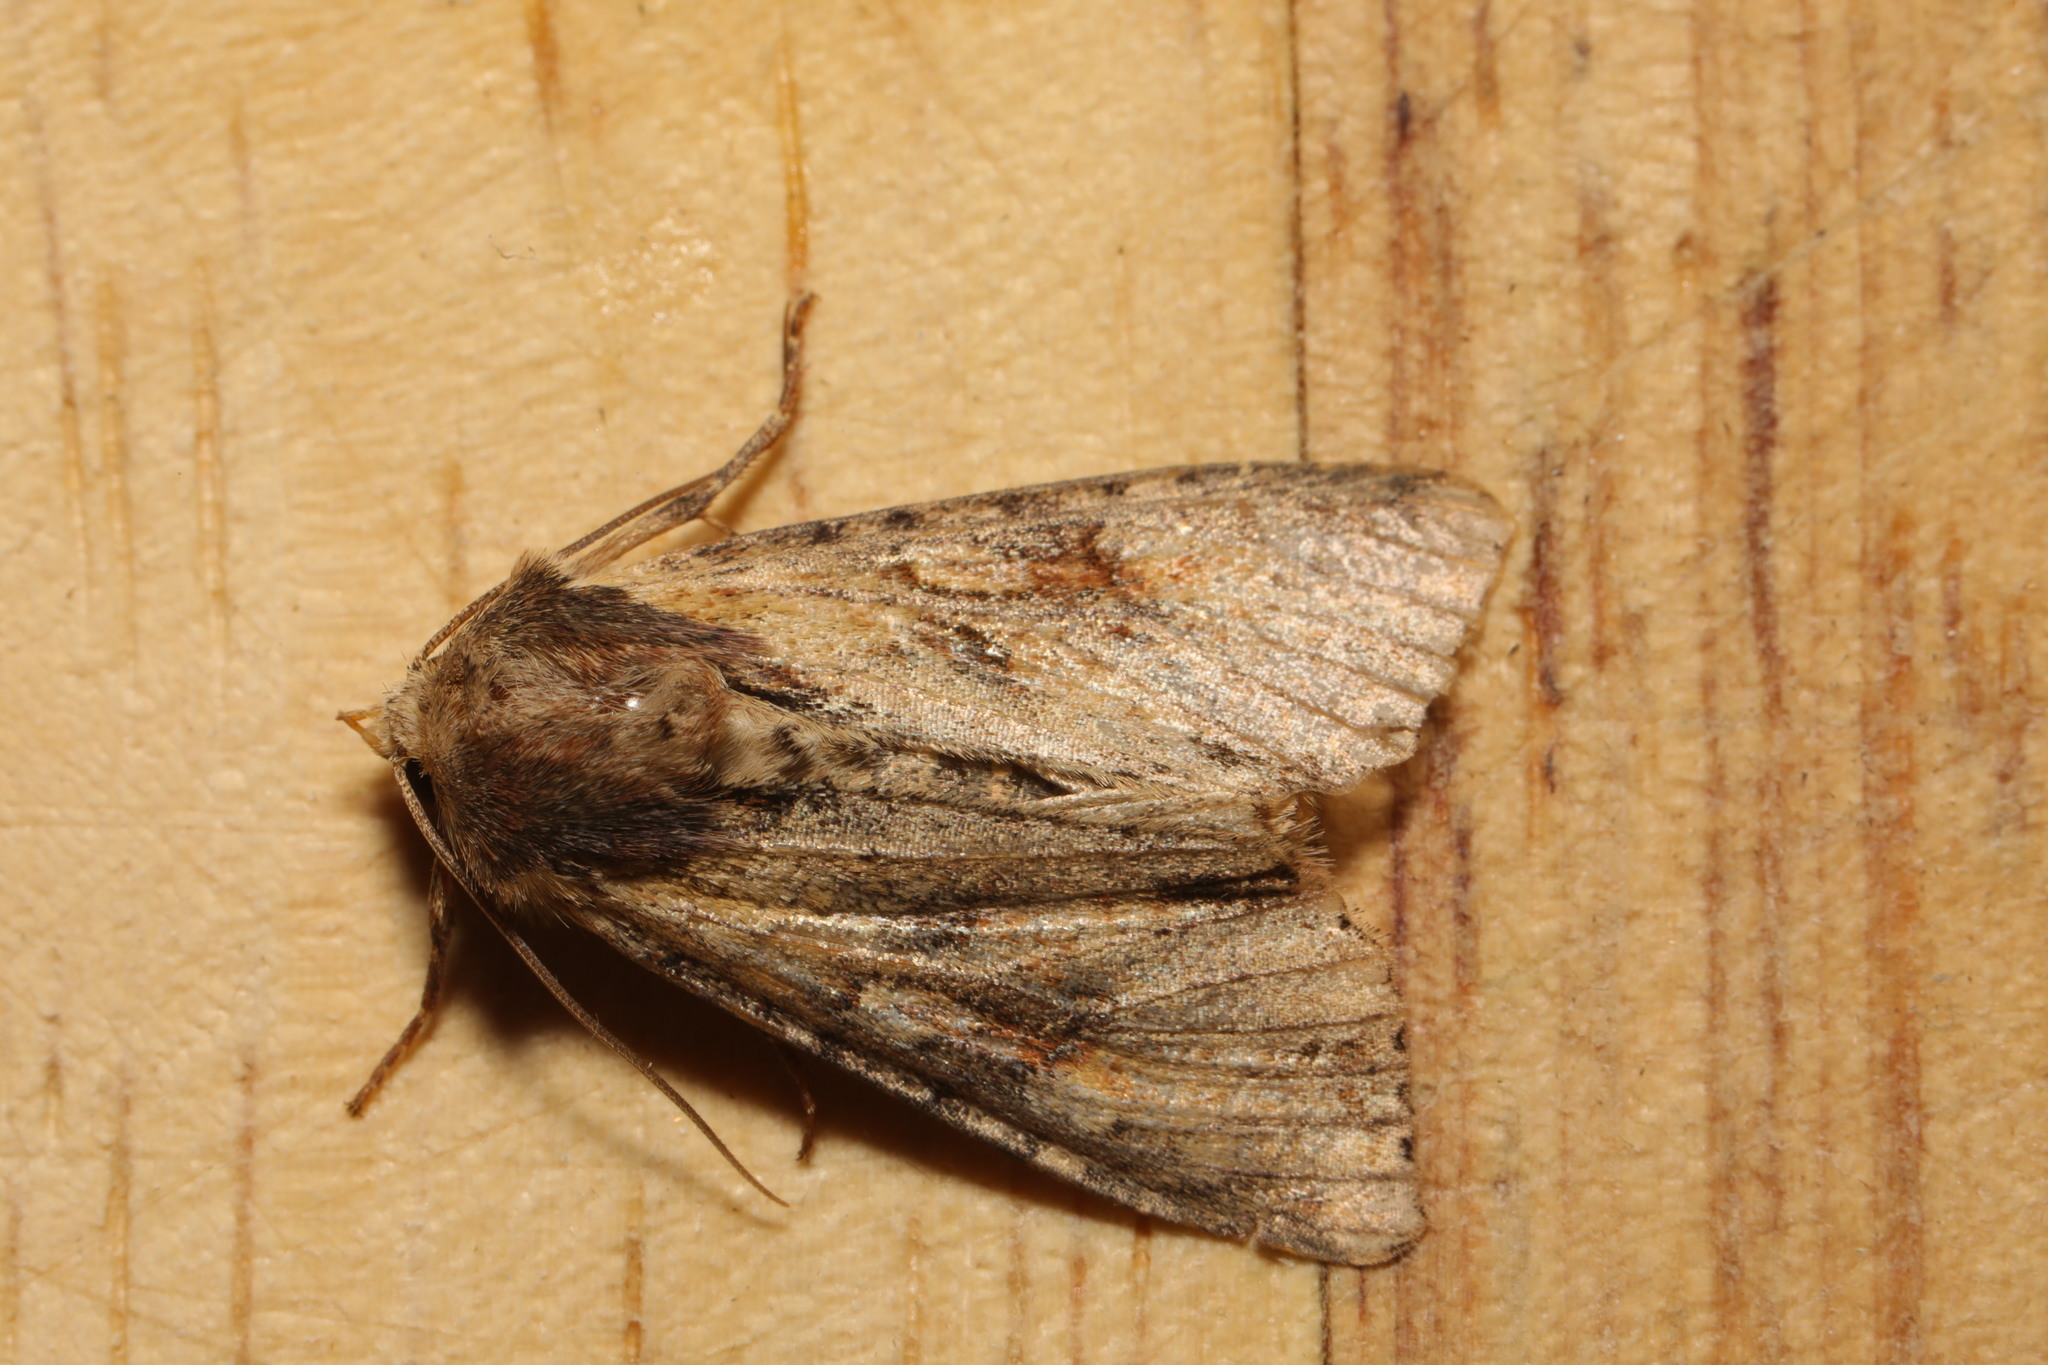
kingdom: Animalia
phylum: Arthropoda
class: Insecta
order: Lepidoptera
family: Noctuidae
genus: Apamea
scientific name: Apamea crenata
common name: Clouded-bordered brindle
